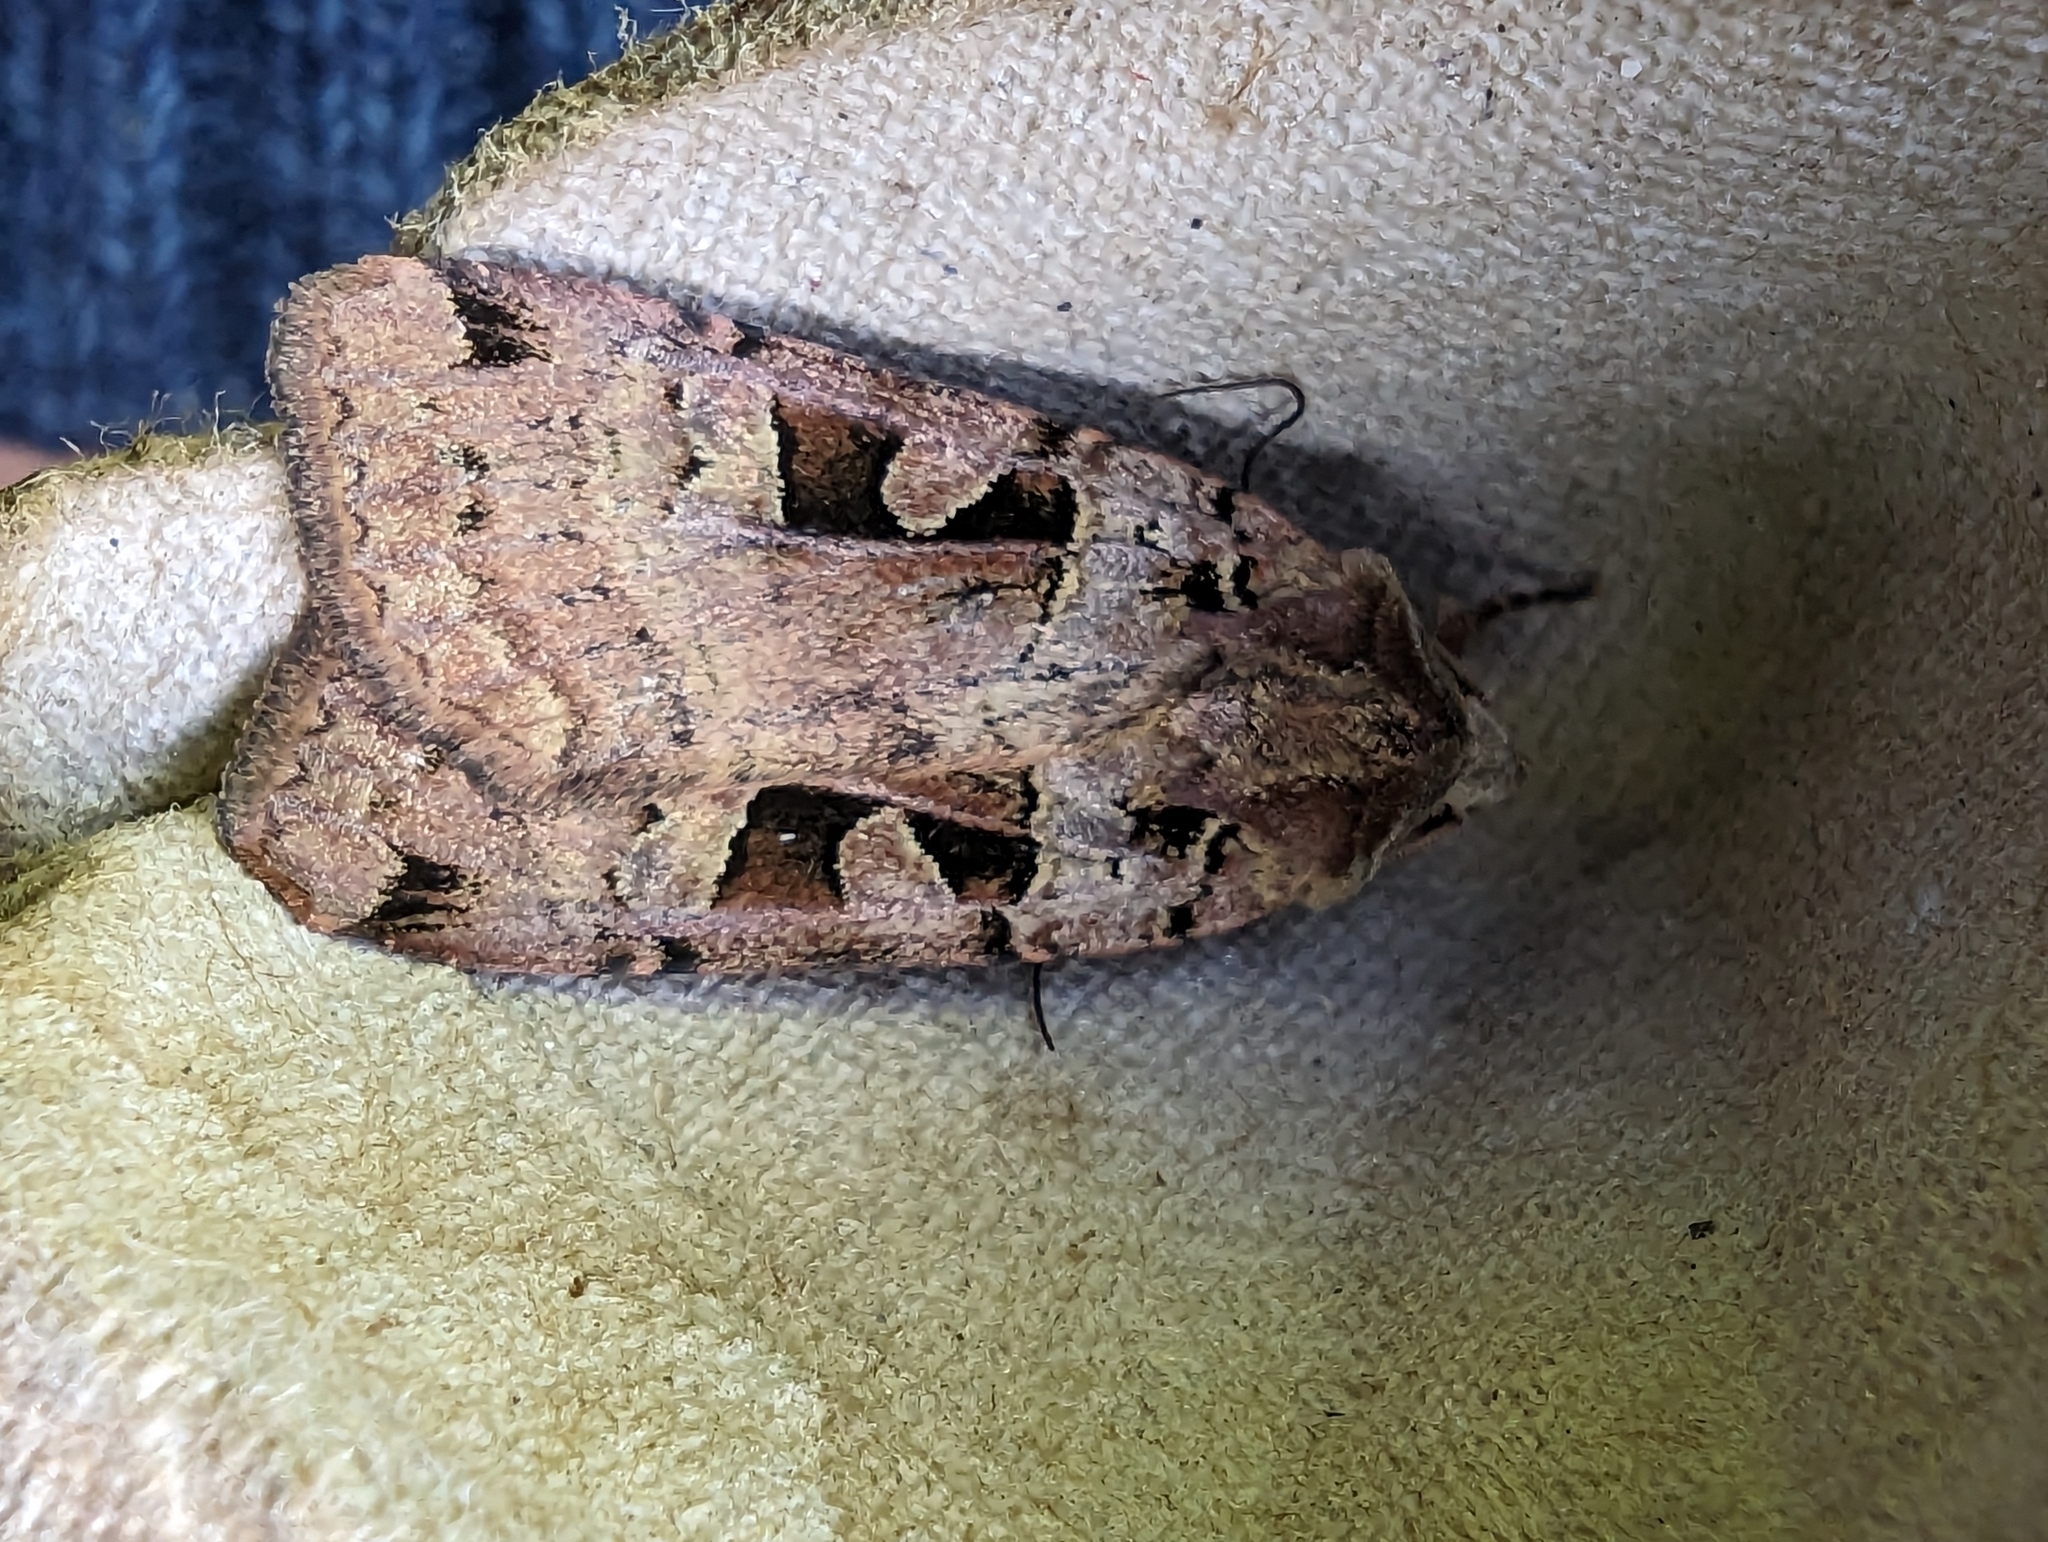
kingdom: Animalia
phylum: Arthropoda
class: Insecta
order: Lepidoptera
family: Noctuidae
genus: Xestia
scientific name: Xestia triangulum
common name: Double square-spot
